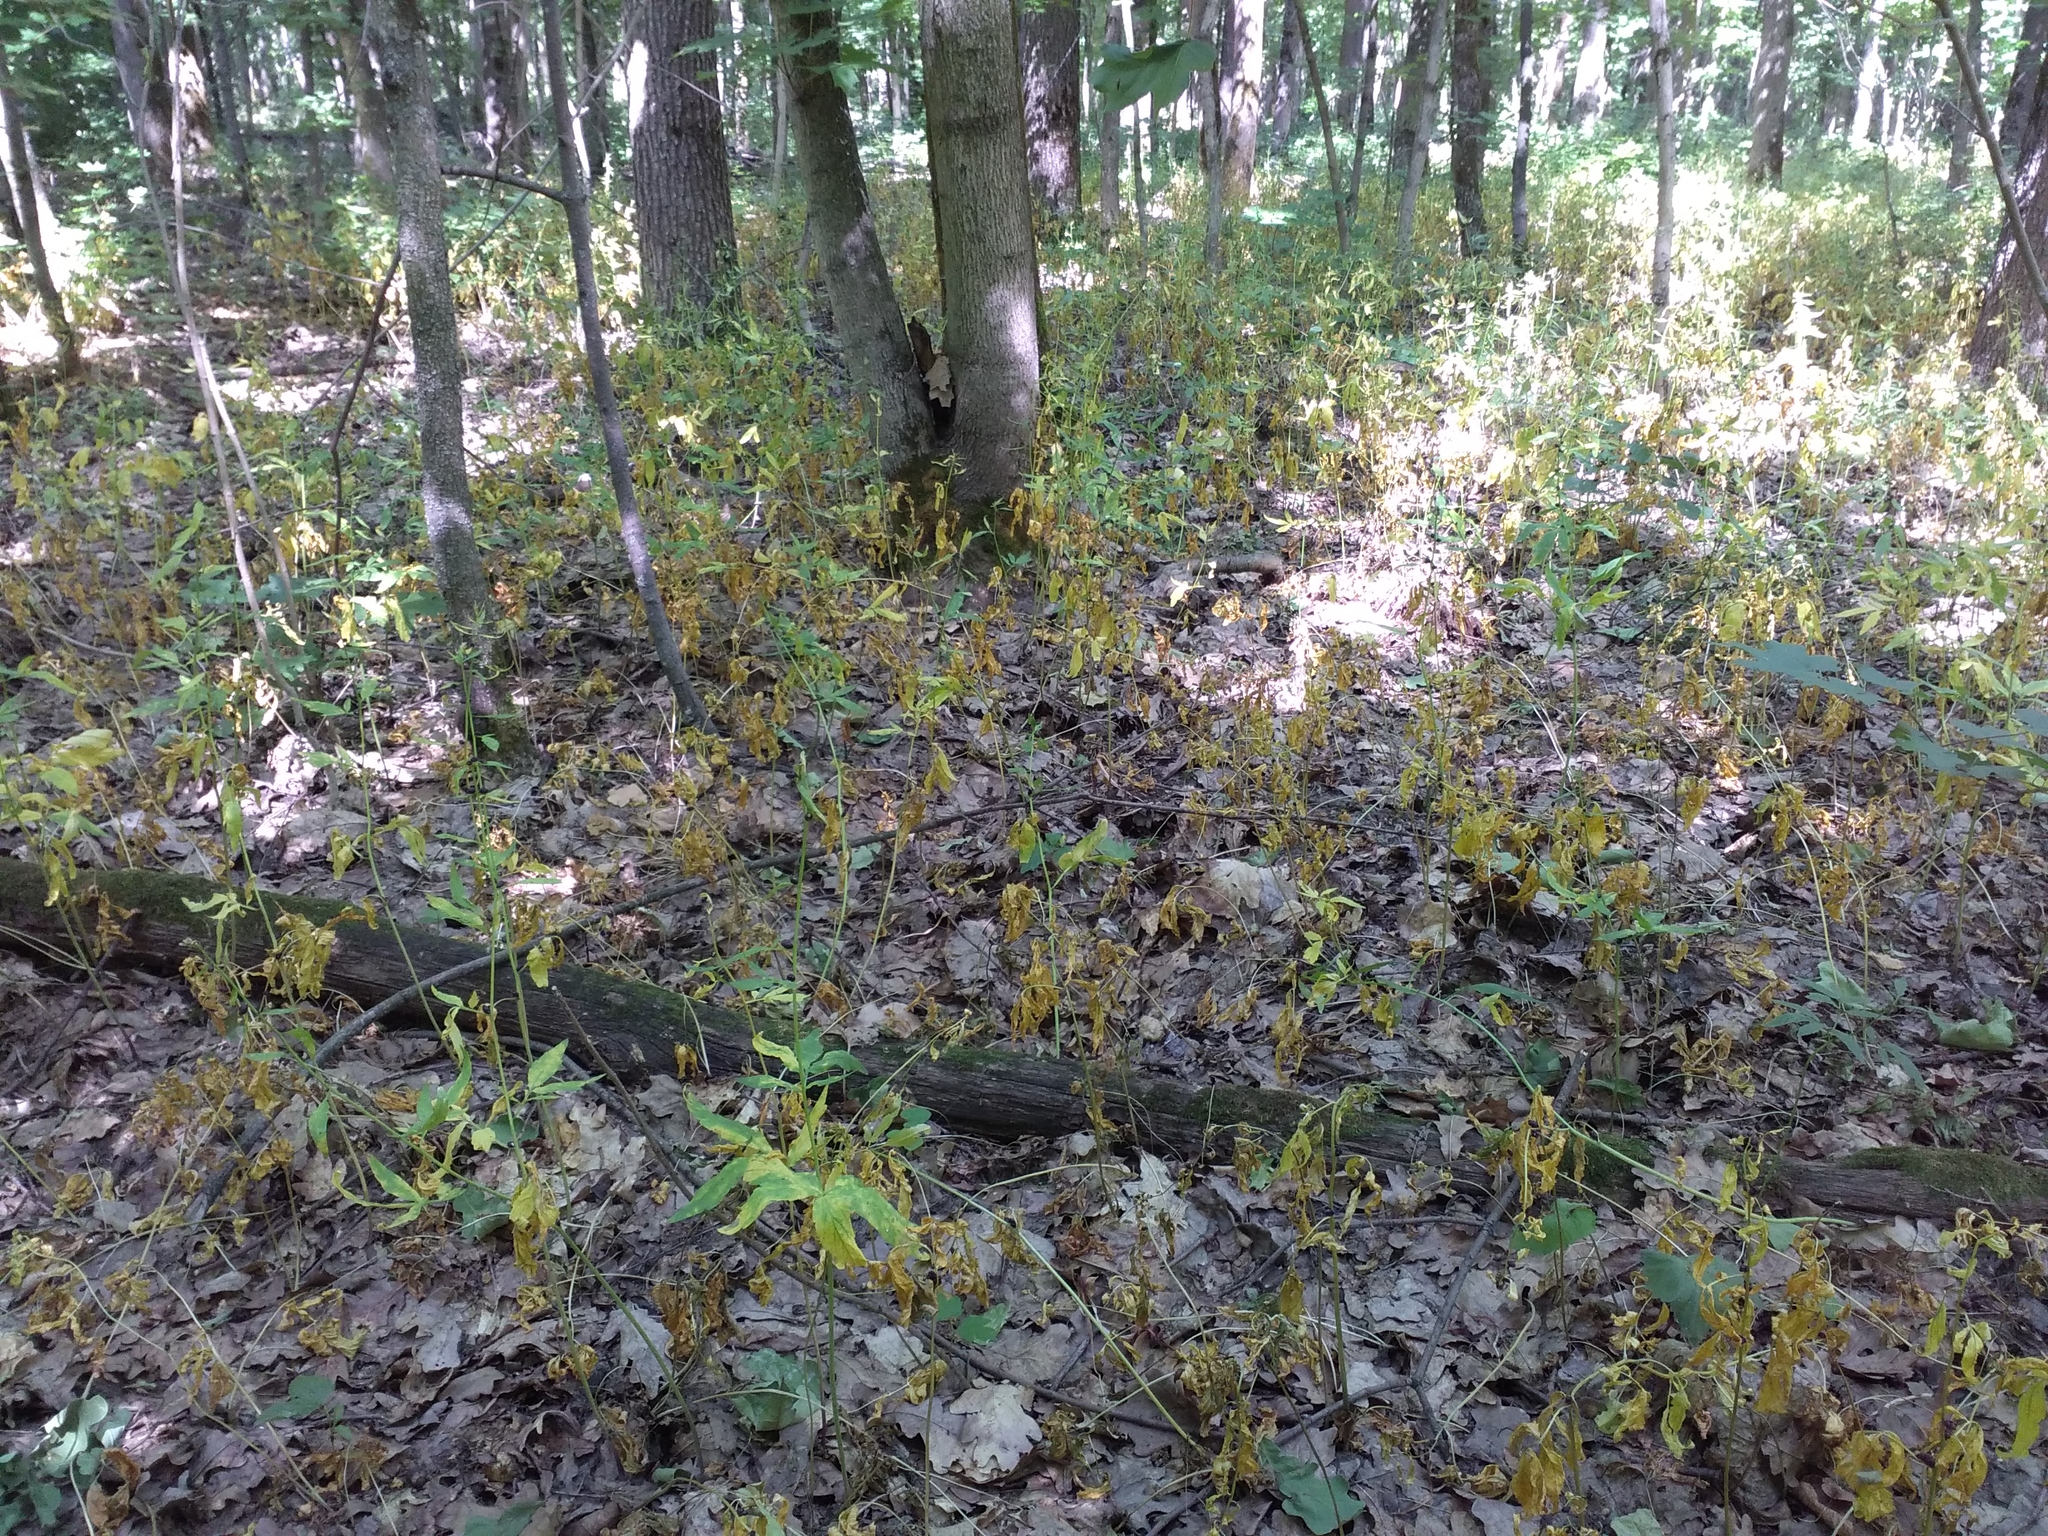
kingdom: Plantae
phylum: Tracheophyta
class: Magnoliopsida
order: Brassicales
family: Brassicaceae
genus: Cardamine
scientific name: Cardamine bulbifera
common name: Coralroot bittercress
